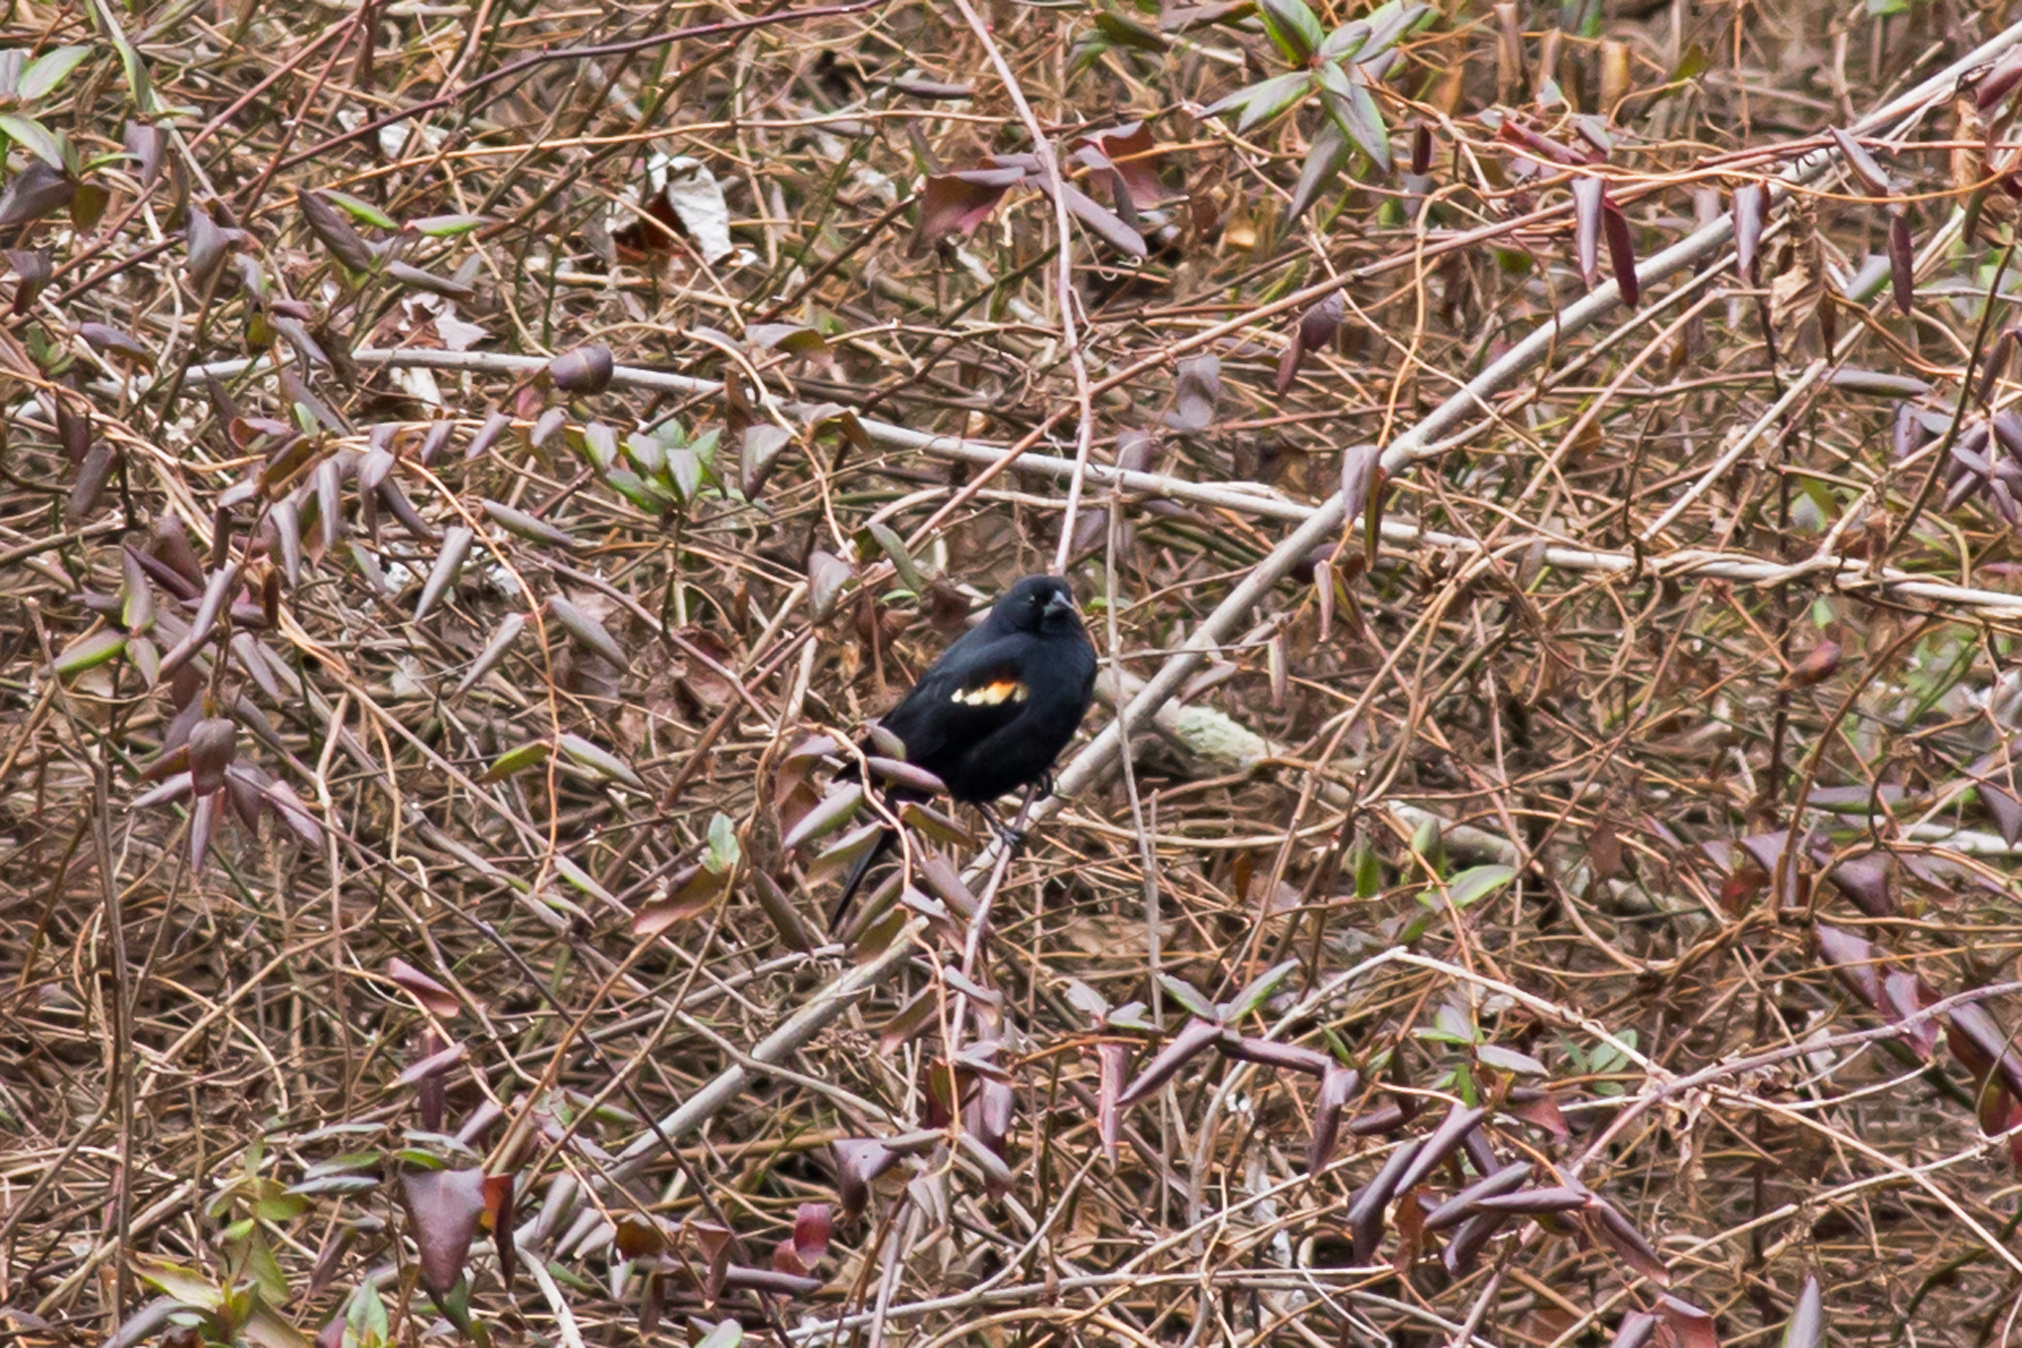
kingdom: Animalia
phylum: Chordata
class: Aves
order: Passeriformes
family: Icteridae
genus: Agelaius
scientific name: Agelaius phoeniceus
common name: Red-winged blackbird
